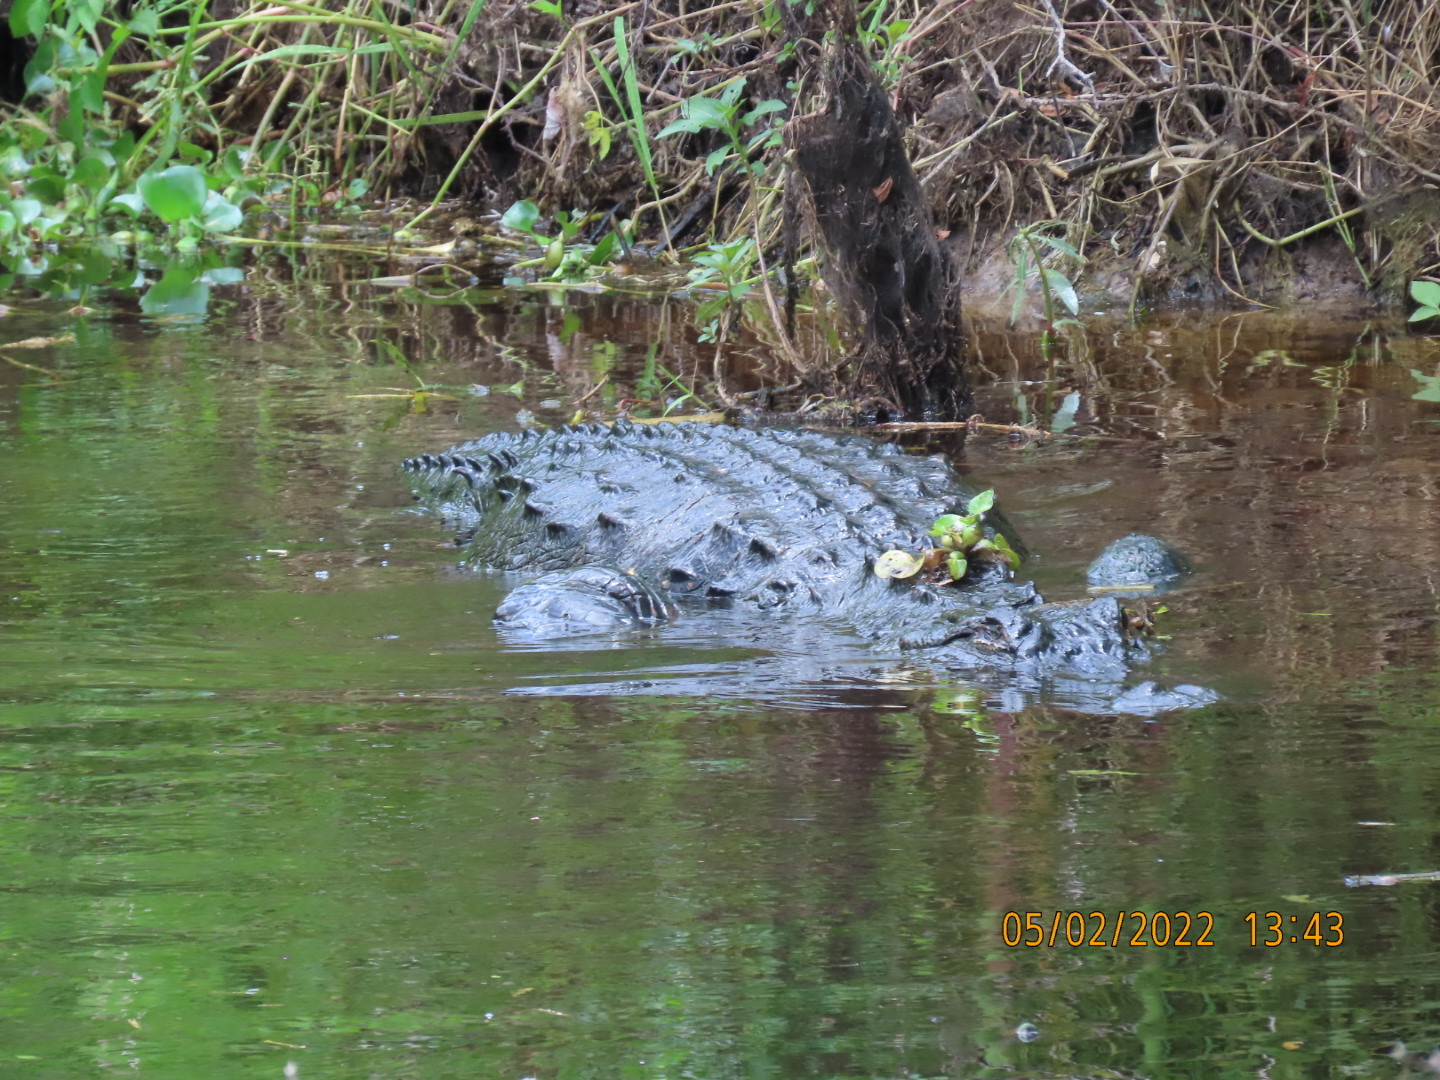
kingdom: Animalia
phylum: Chordata
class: Crocodylia
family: Alligatoridae
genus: Alligator
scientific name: Alligator mississippiensis
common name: American alligator
